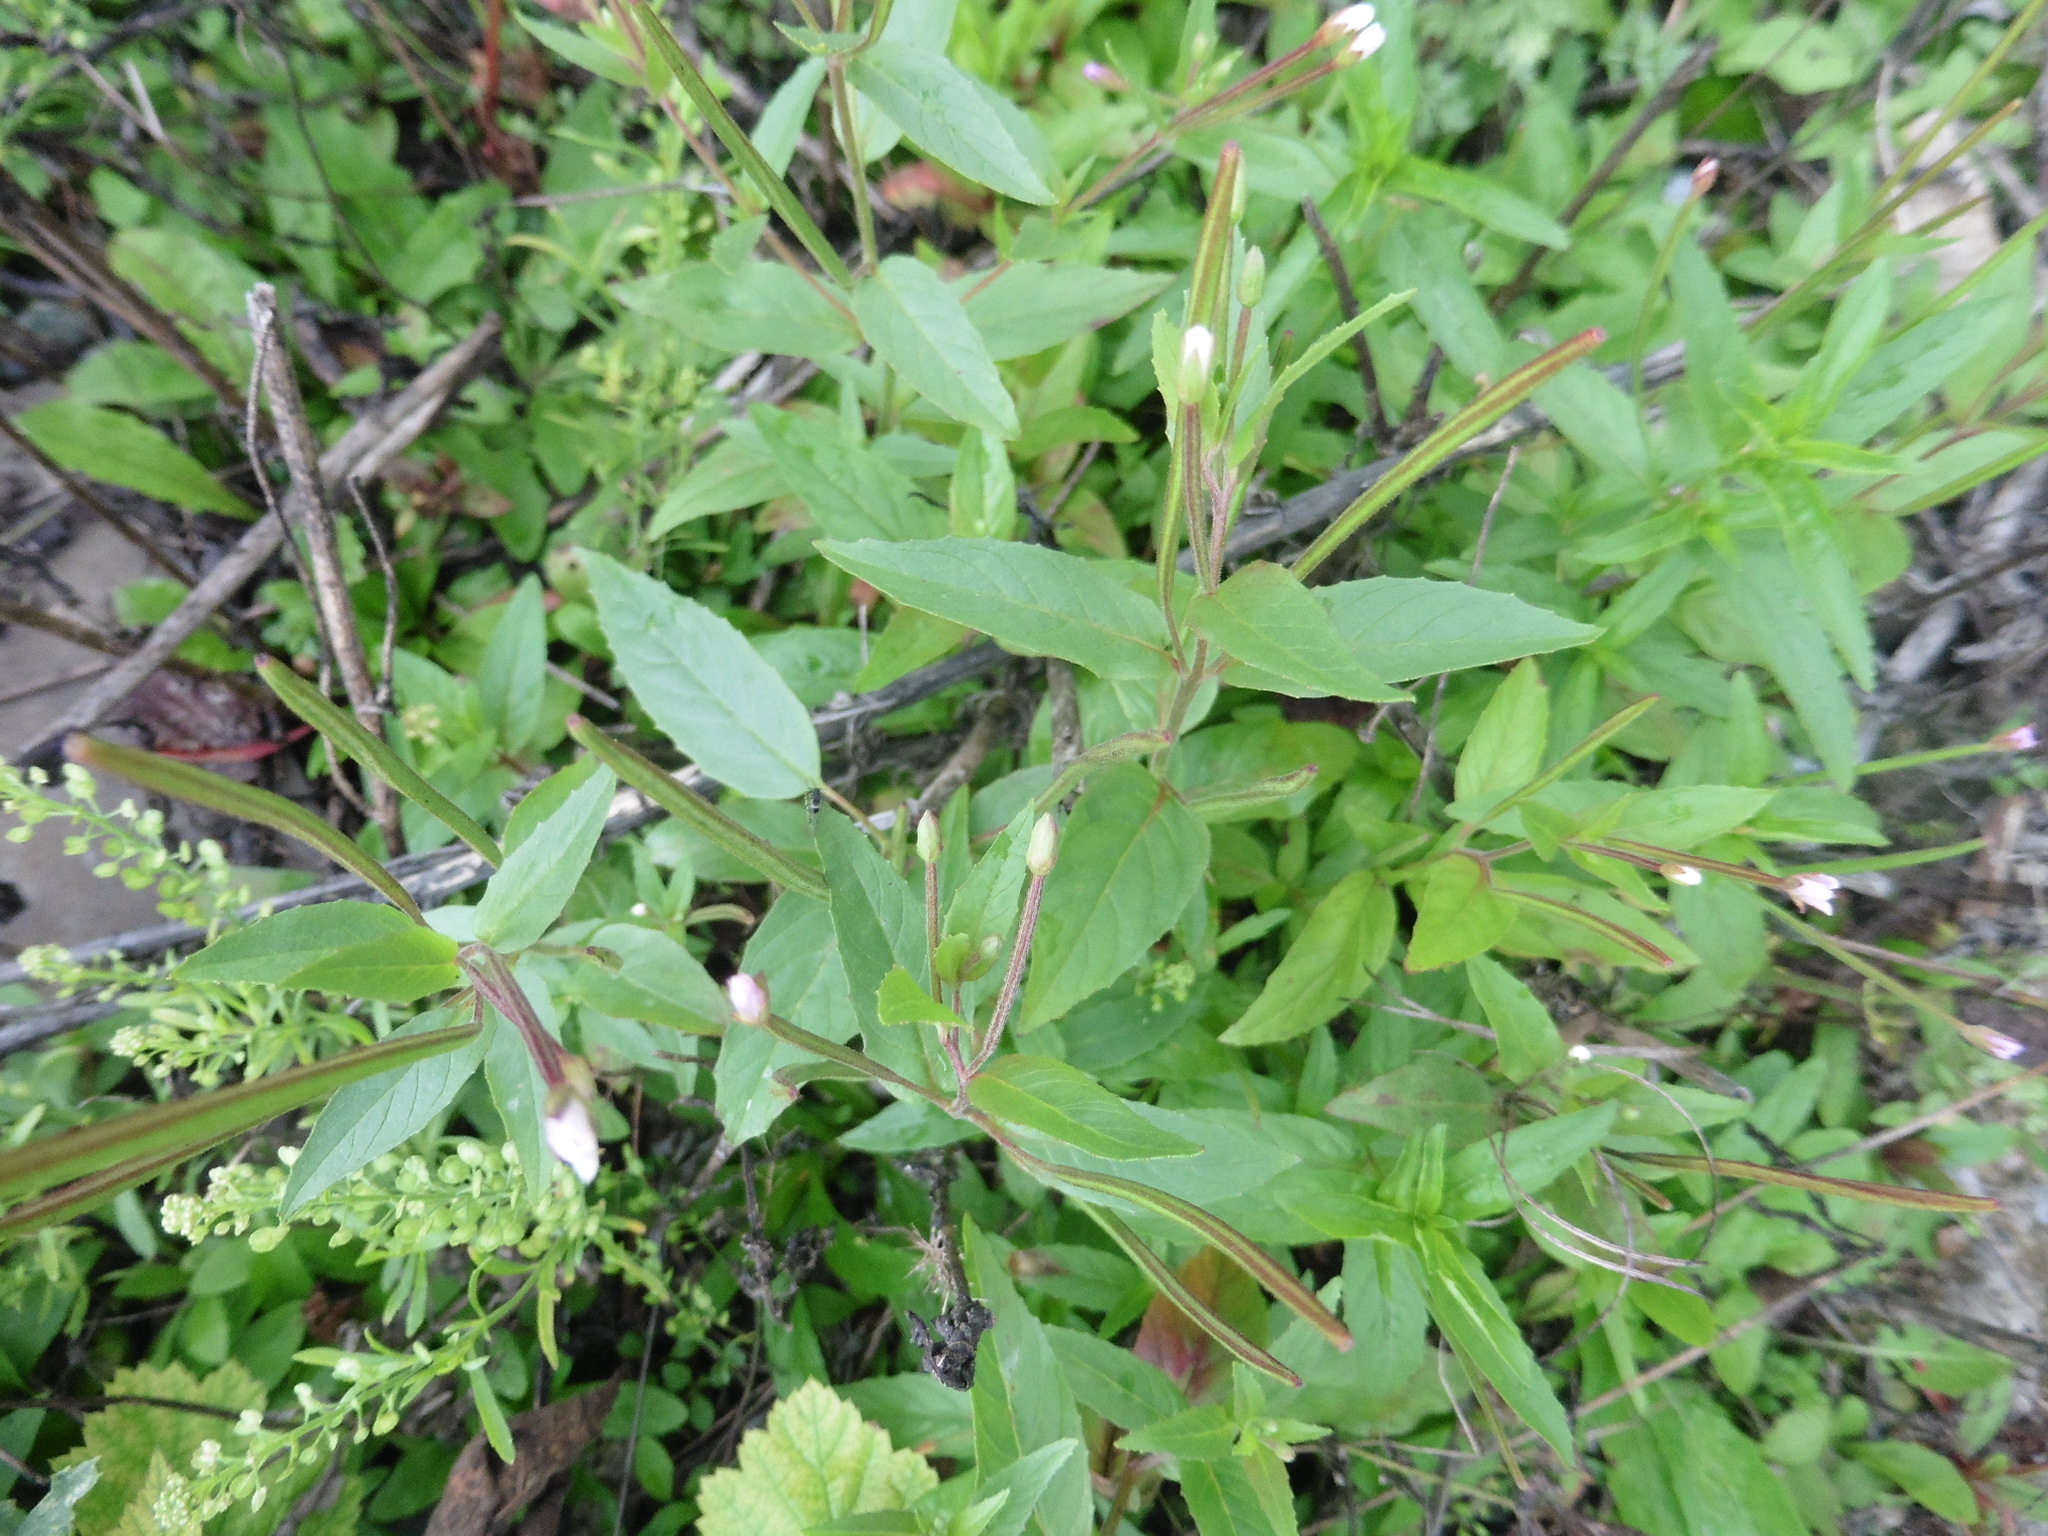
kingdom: Plantae
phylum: Tracheophyta
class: Magnoliopsida
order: Myrtales
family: Onagraceae
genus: Epilobium
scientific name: Epilobium pseudorubescens
